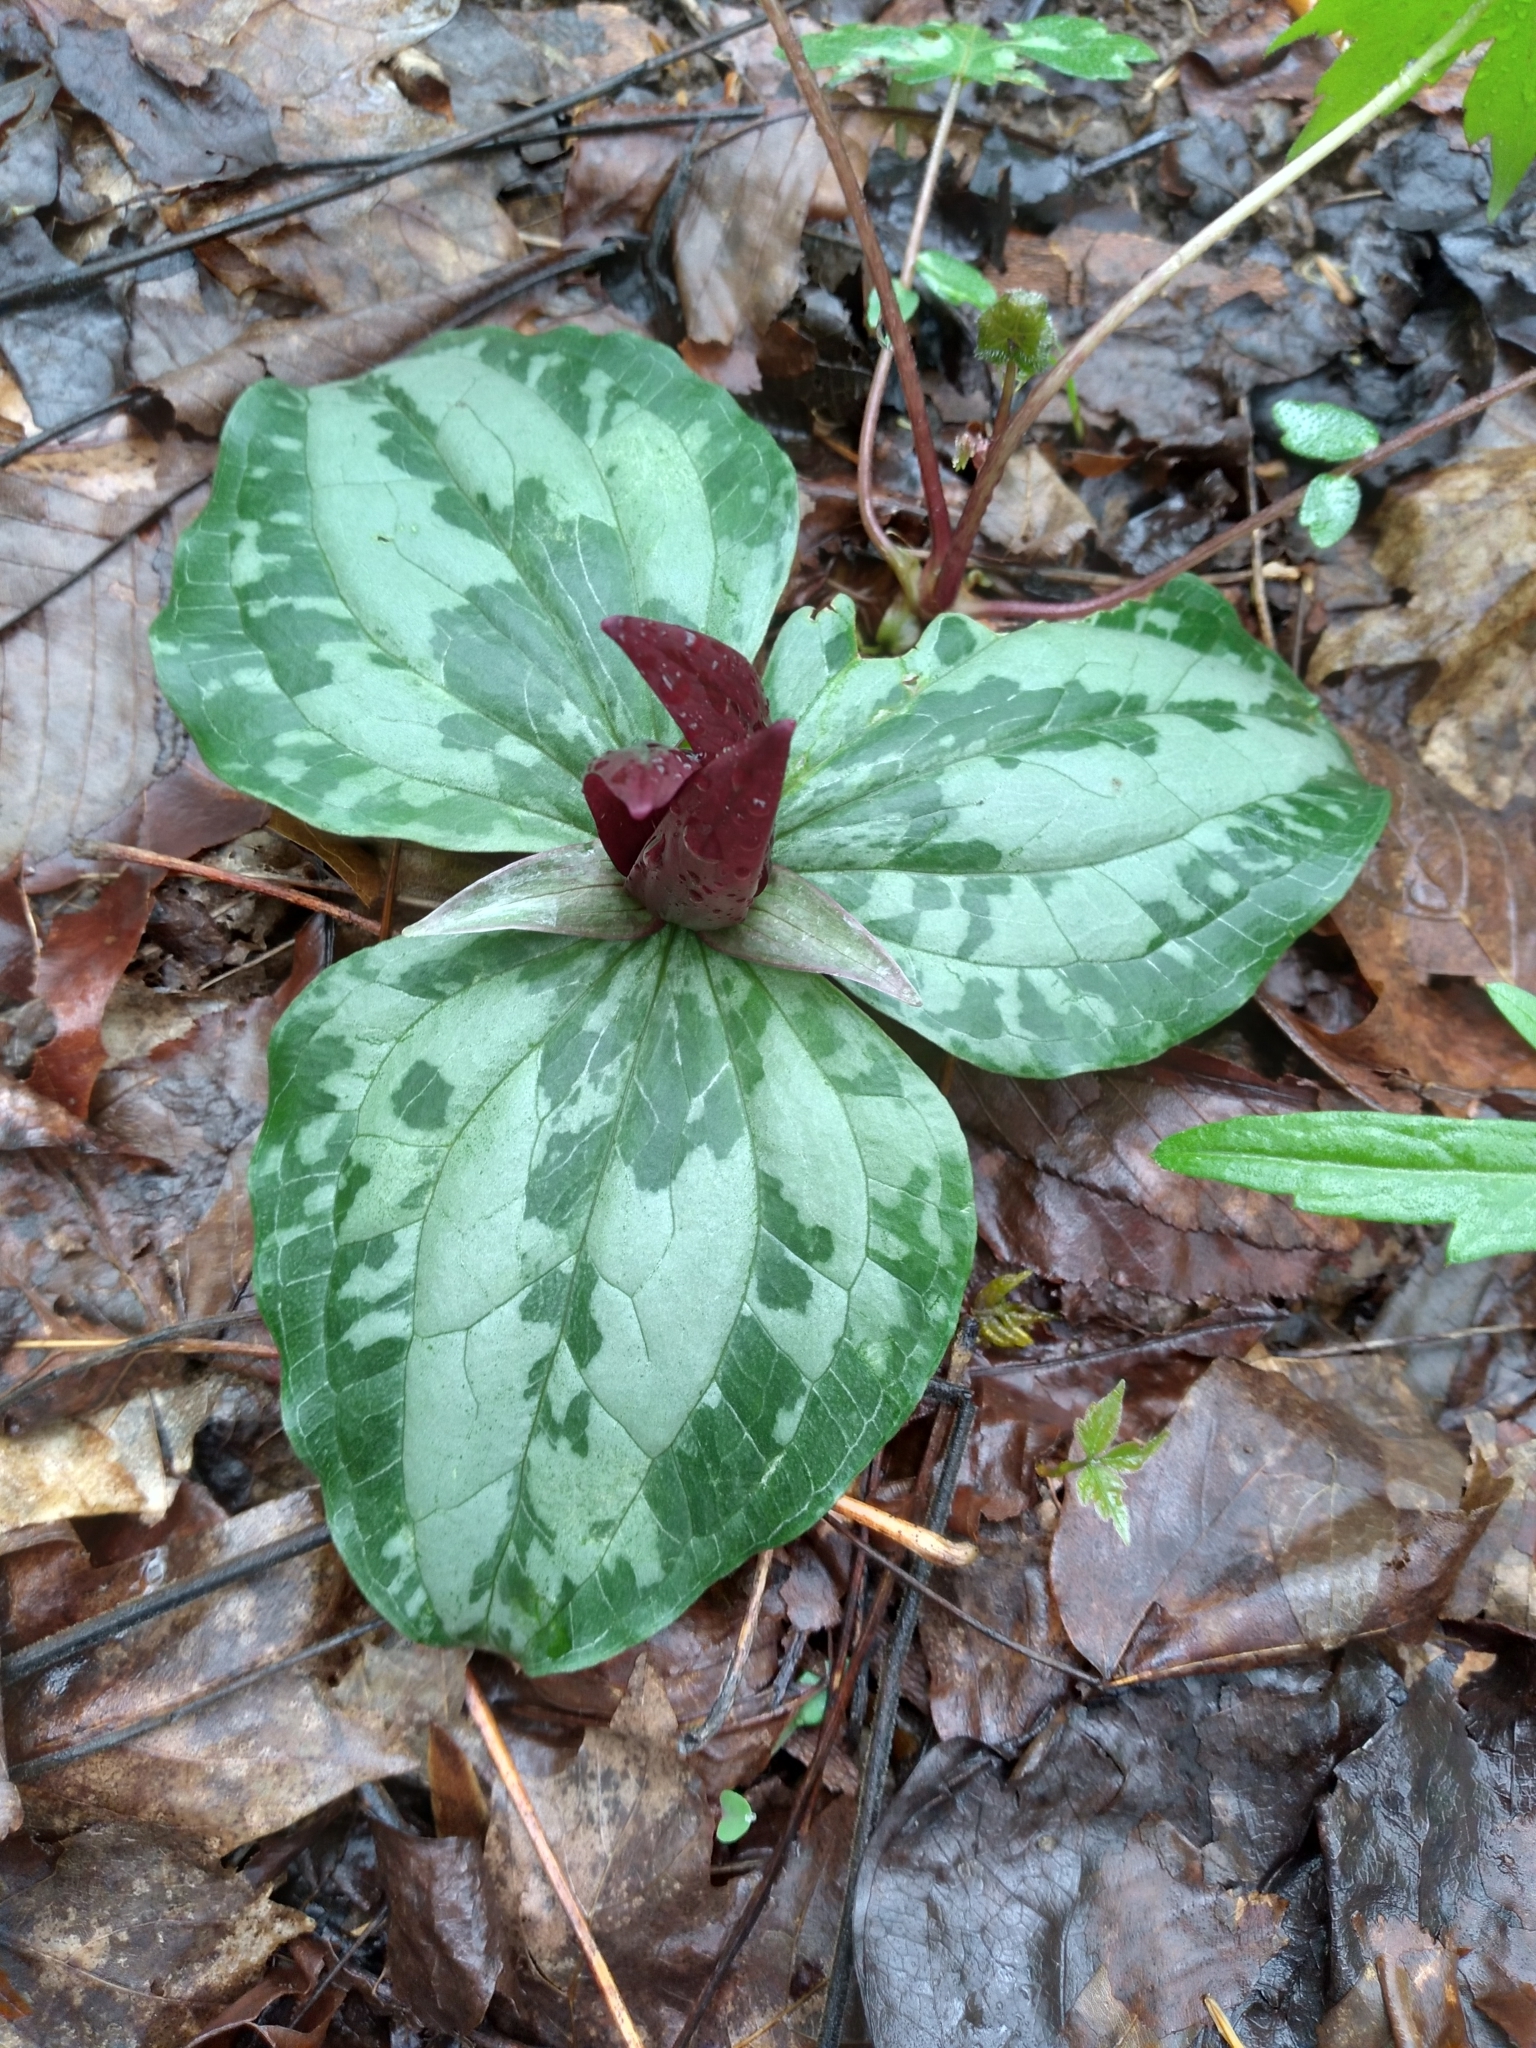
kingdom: Plantae
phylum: Tracheophyta
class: Liliopsida
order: Liliales
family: Melanthiaceae
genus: Trillium
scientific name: Trillium decumbens
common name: Decumbent trillium
